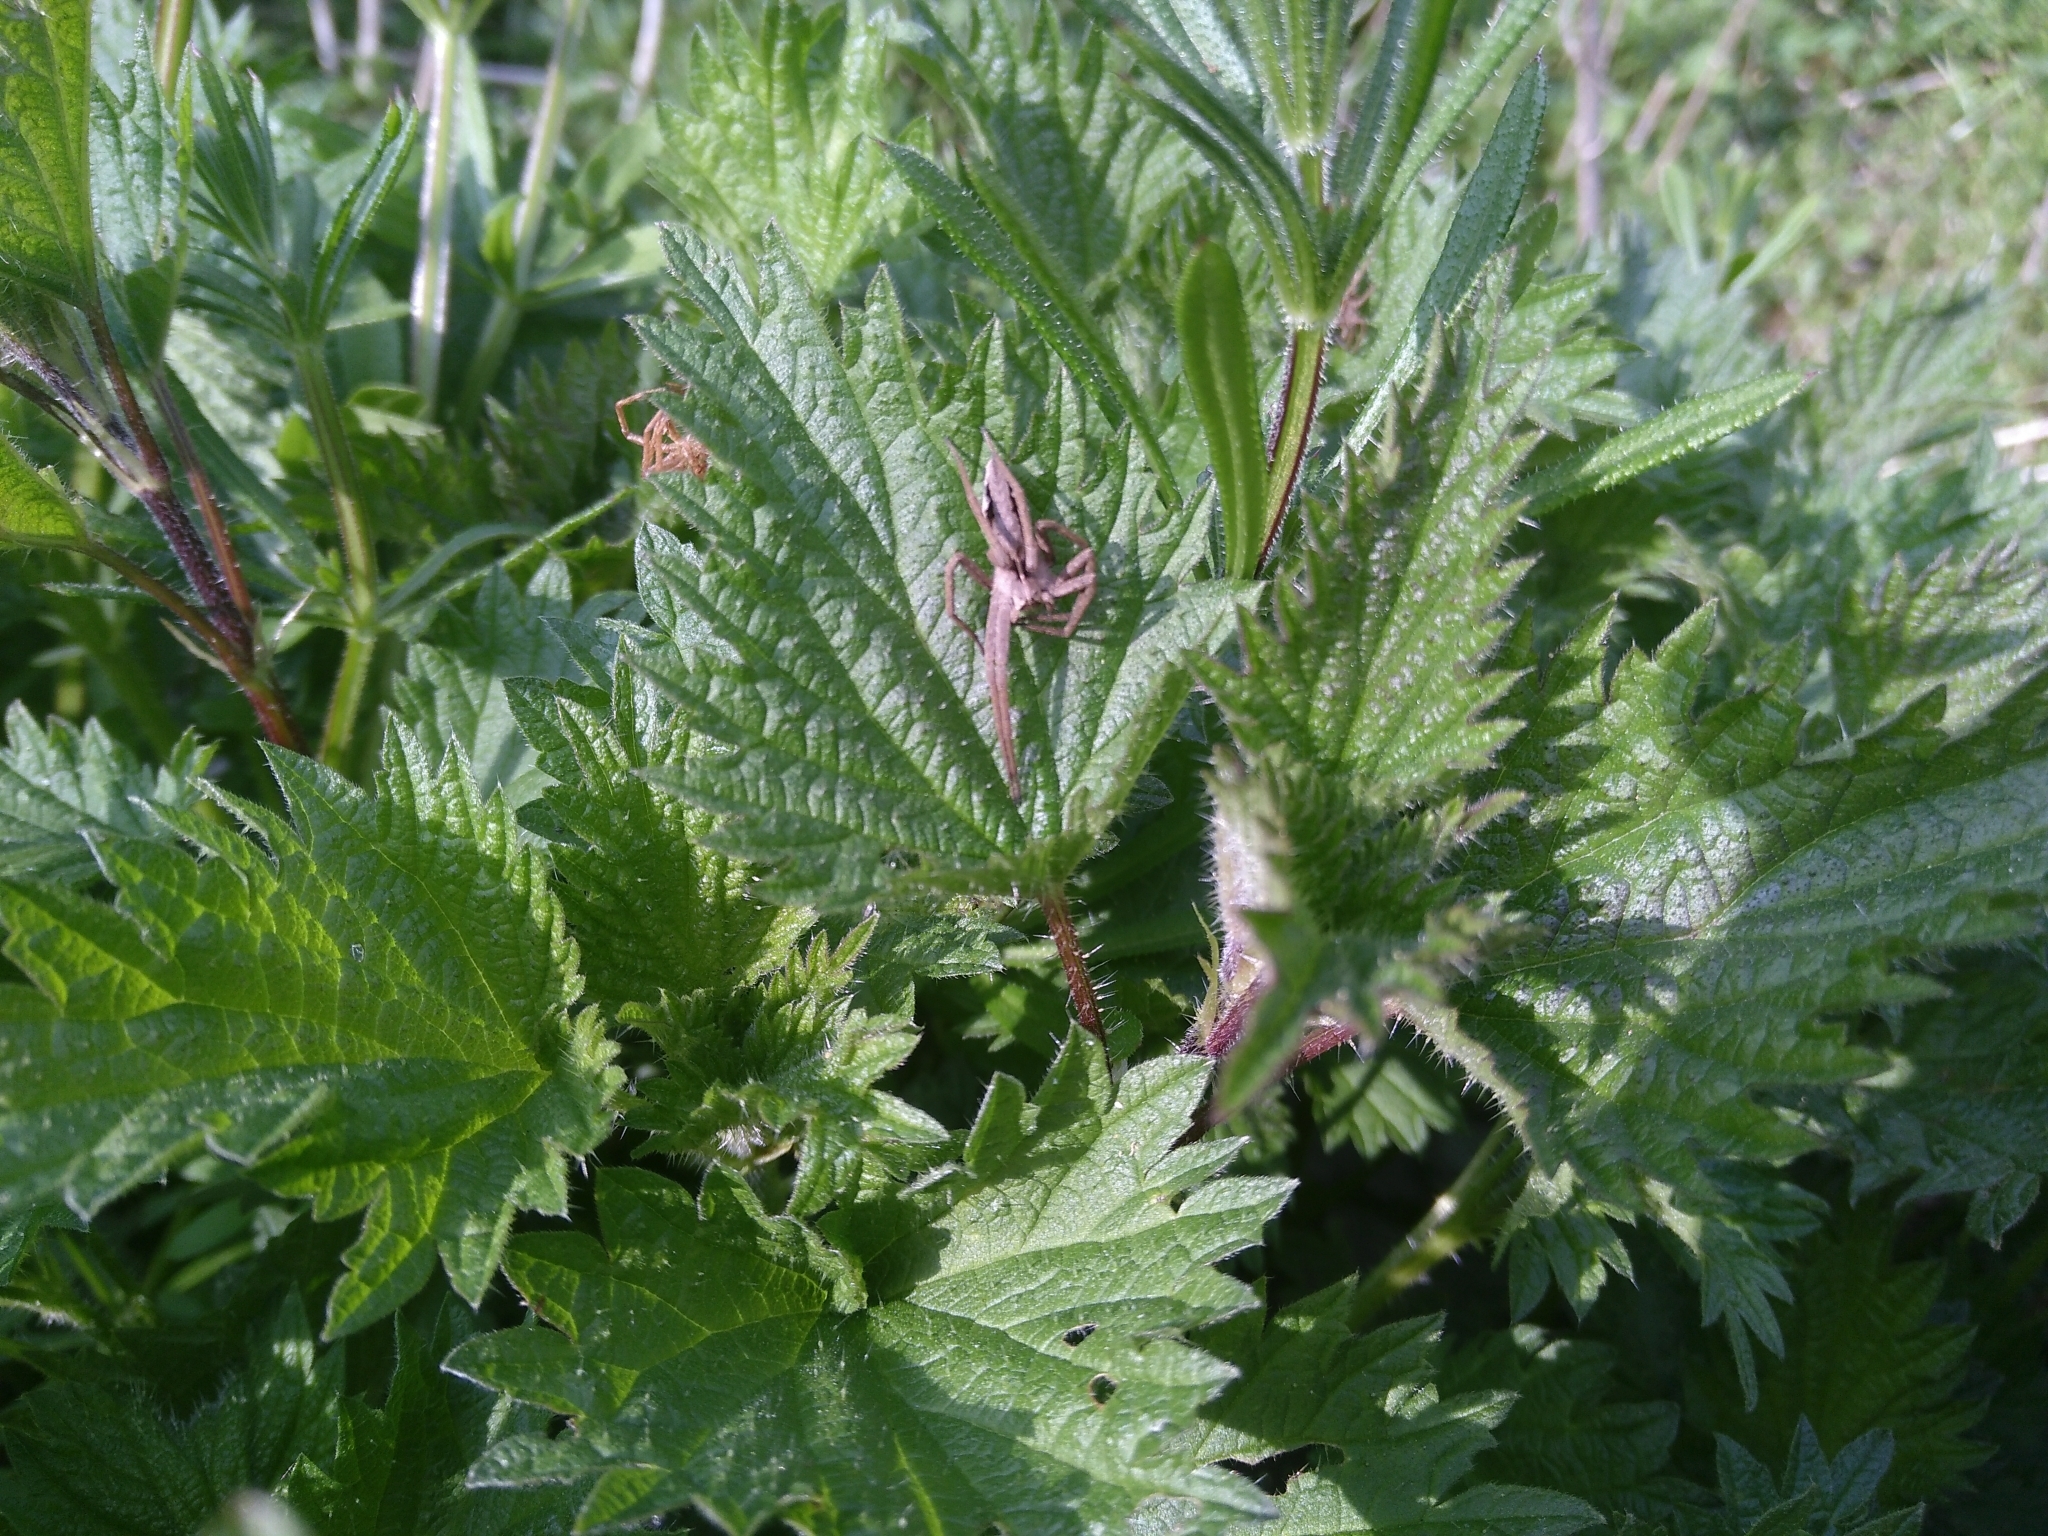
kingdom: Animalia
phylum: Arthropoda
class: Arachnida
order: Araneae
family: Pisauridae
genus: Pisaura
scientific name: Pisaura mirabilis
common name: Tent spider
